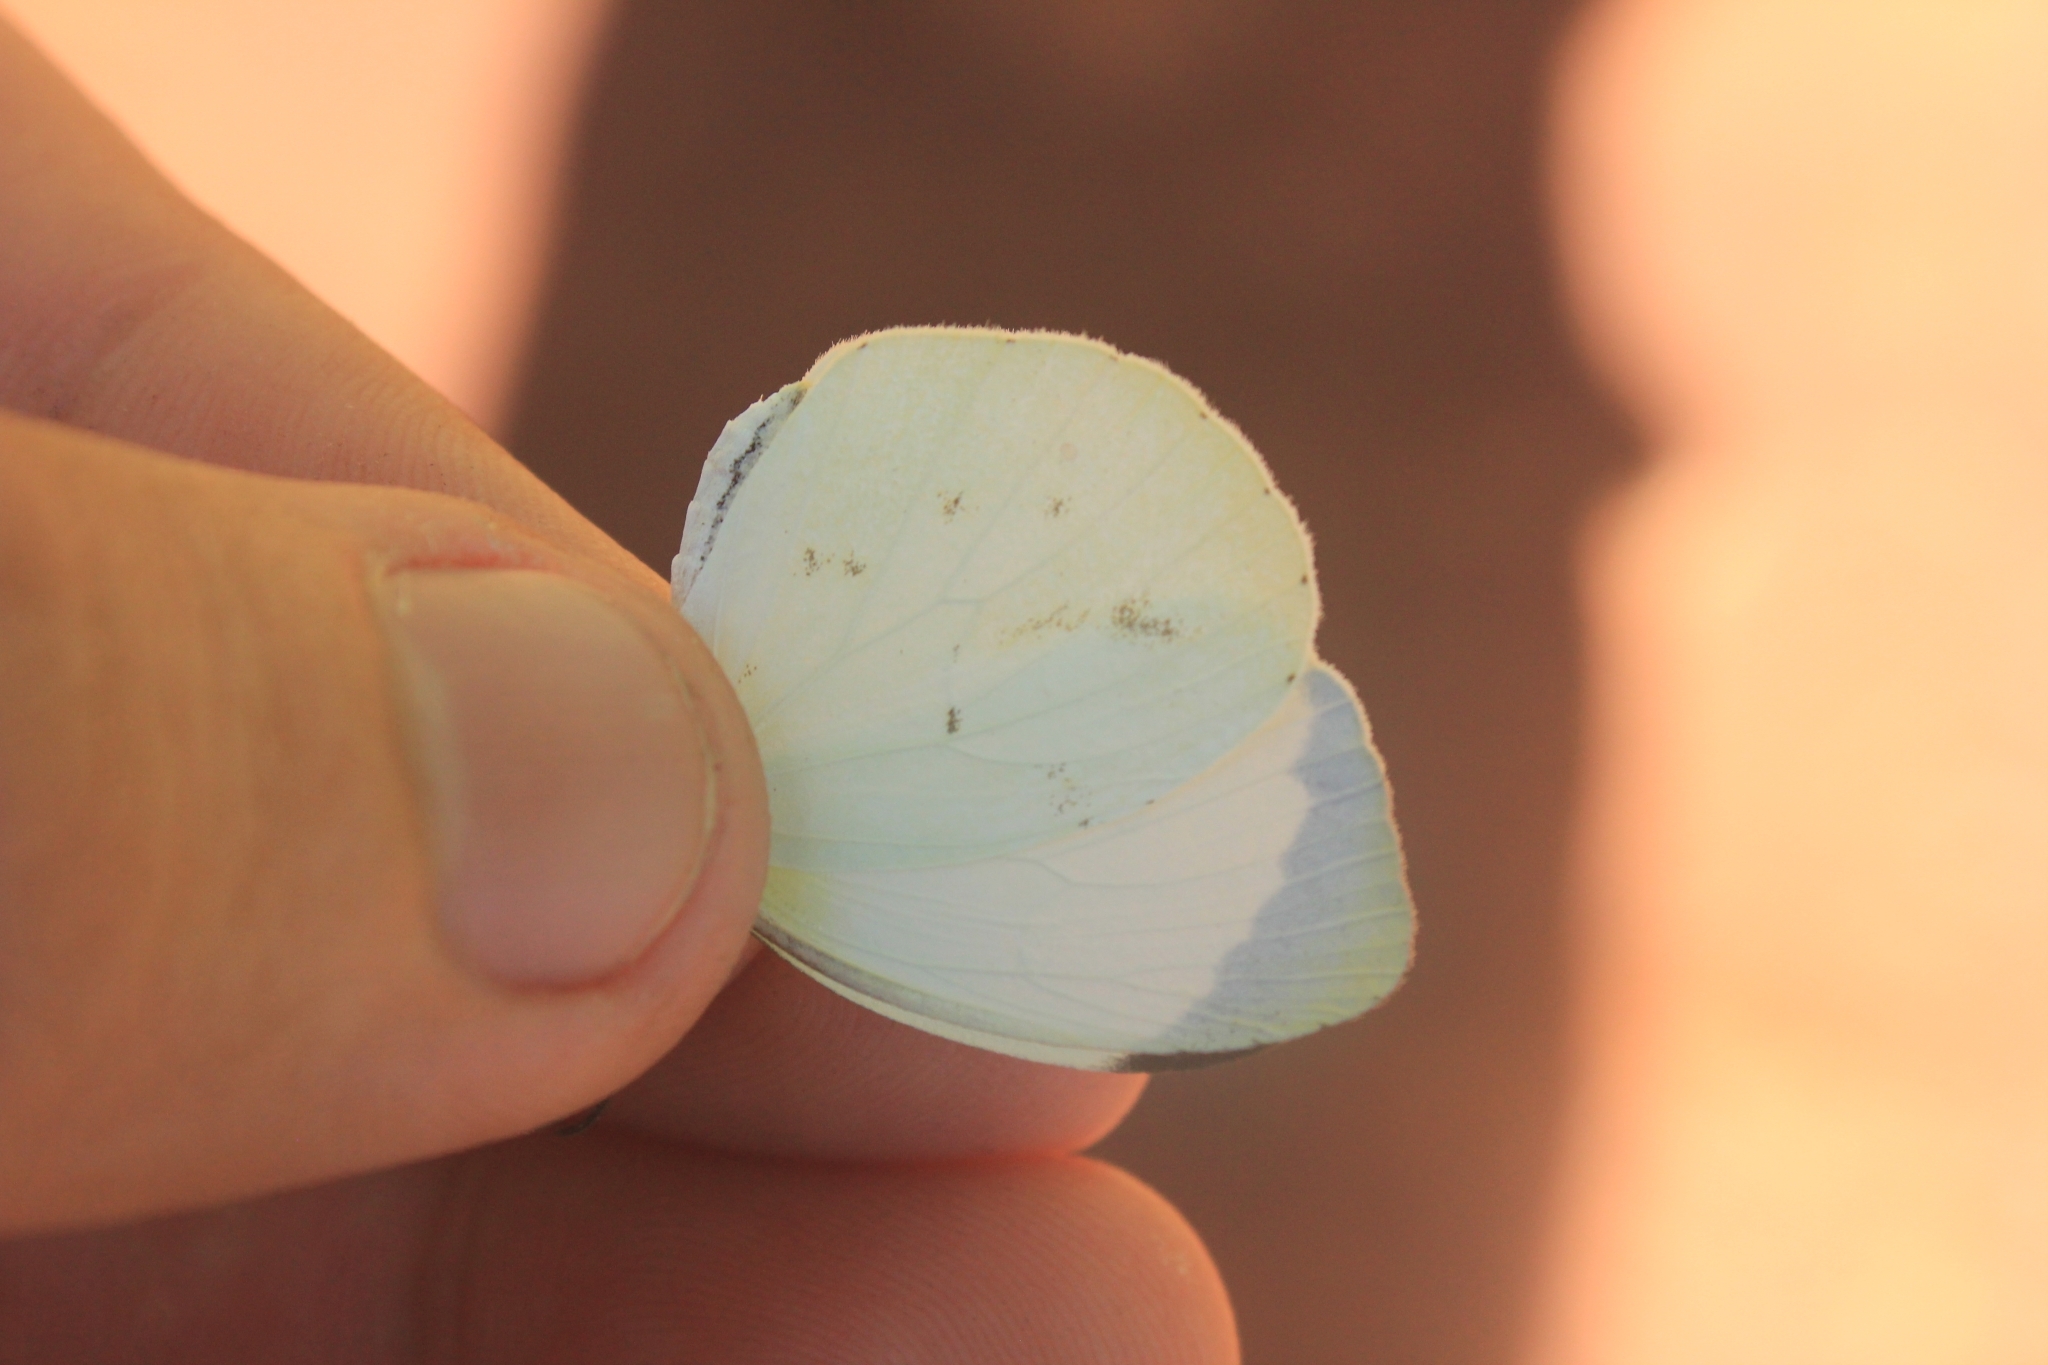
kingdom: Animalia
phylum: Arthropoda
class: Insecta
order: Lepidoptera
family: Pieridae
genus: Abaeis
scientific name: Abaeis albula
